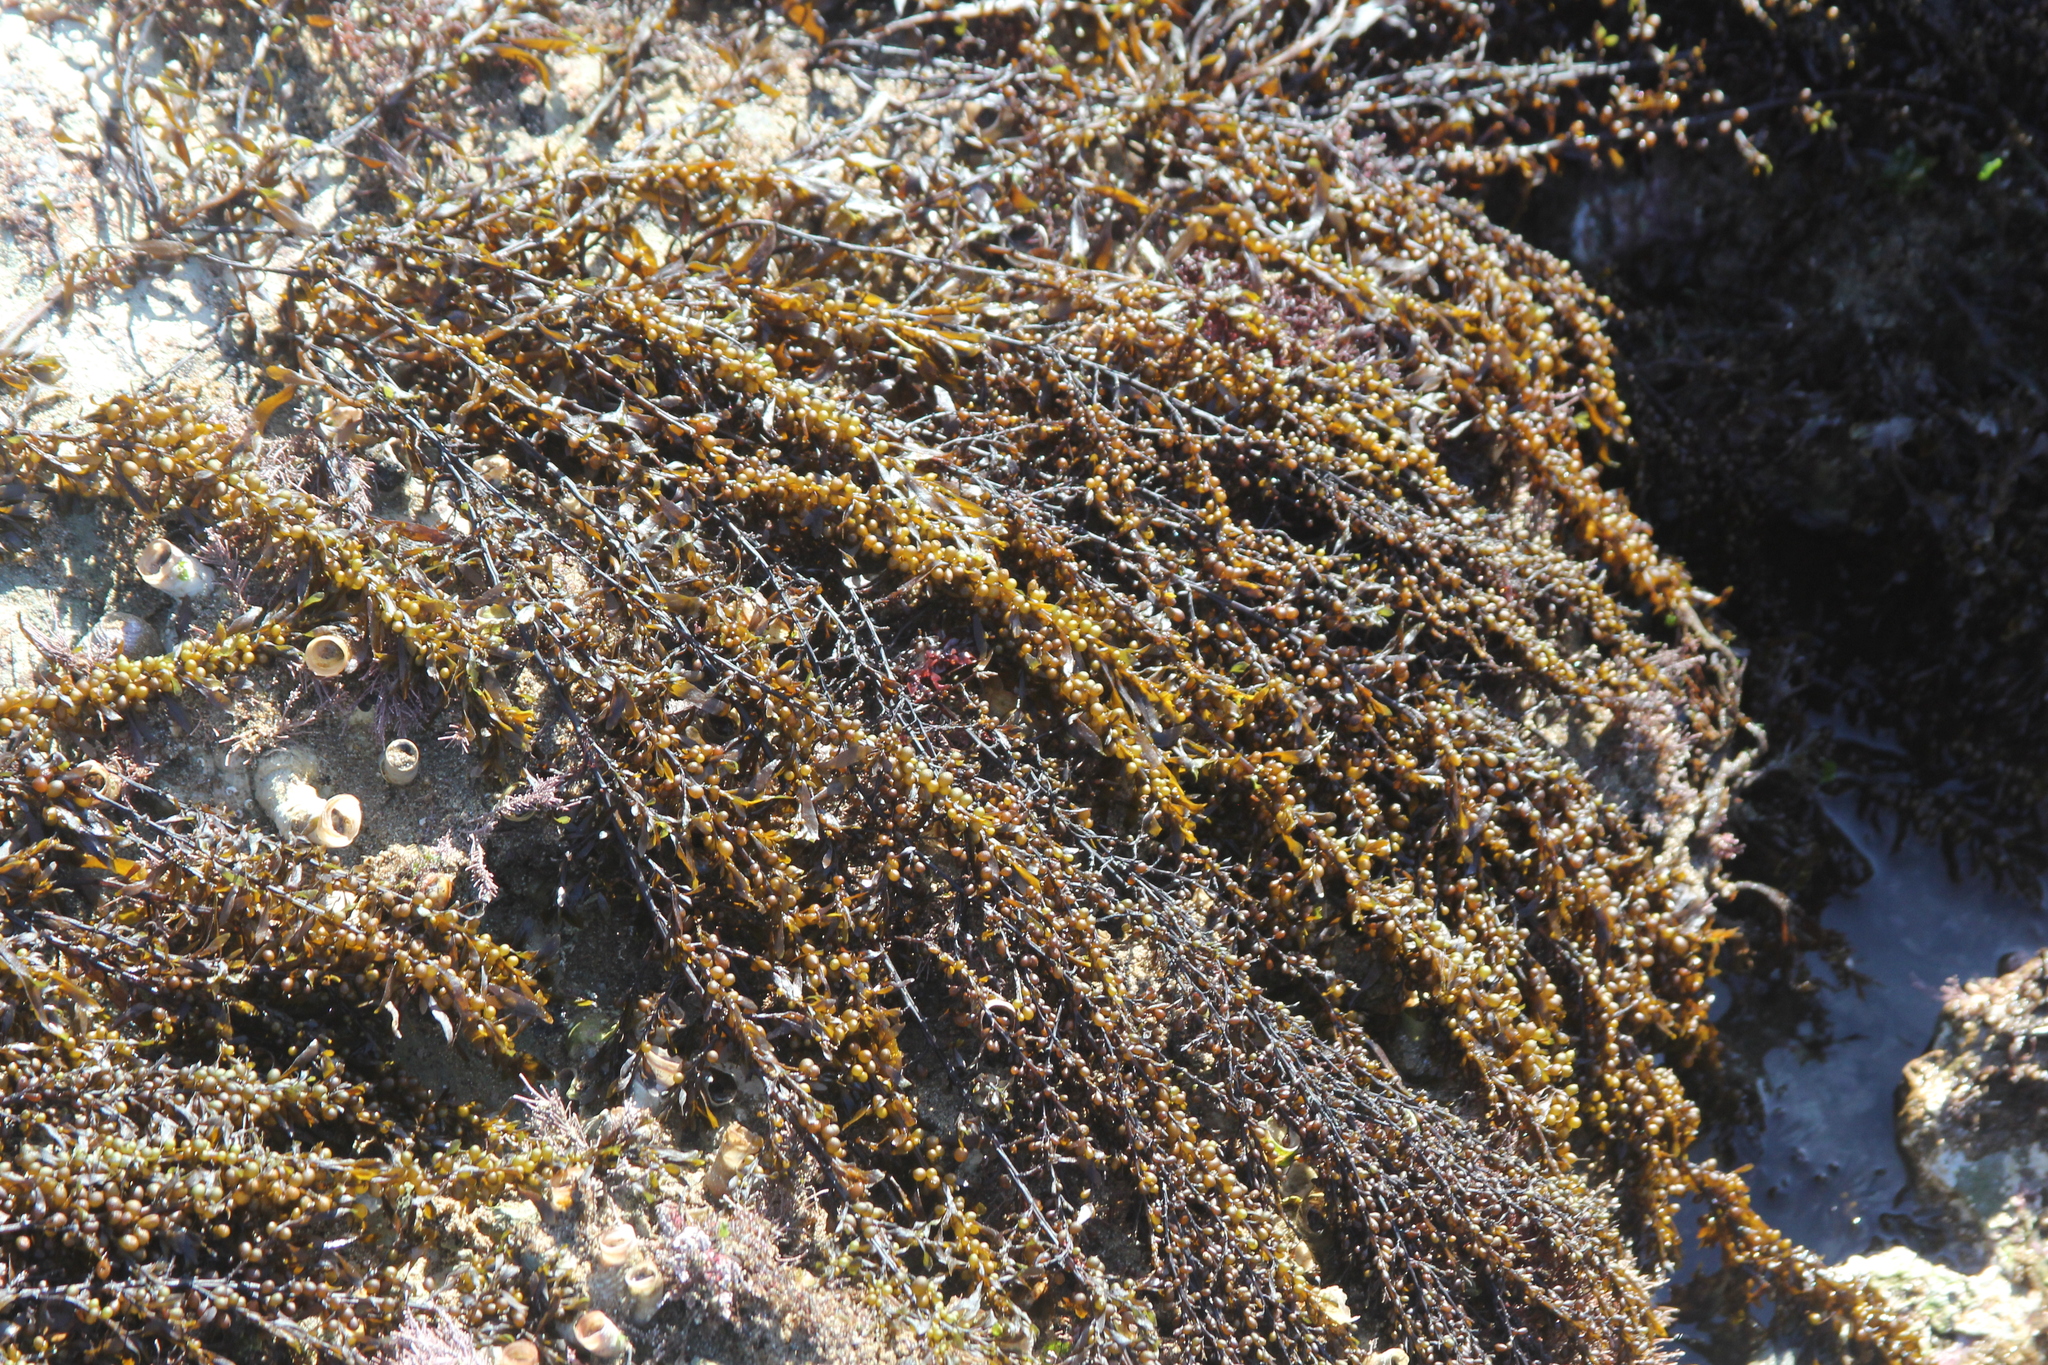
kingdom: Chromista
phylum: Ochrophyta
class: Phaeophyceae
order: Fucales
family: Sargassaceae
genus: Sargassum
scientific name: Sargassum muticum
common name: Japweed
